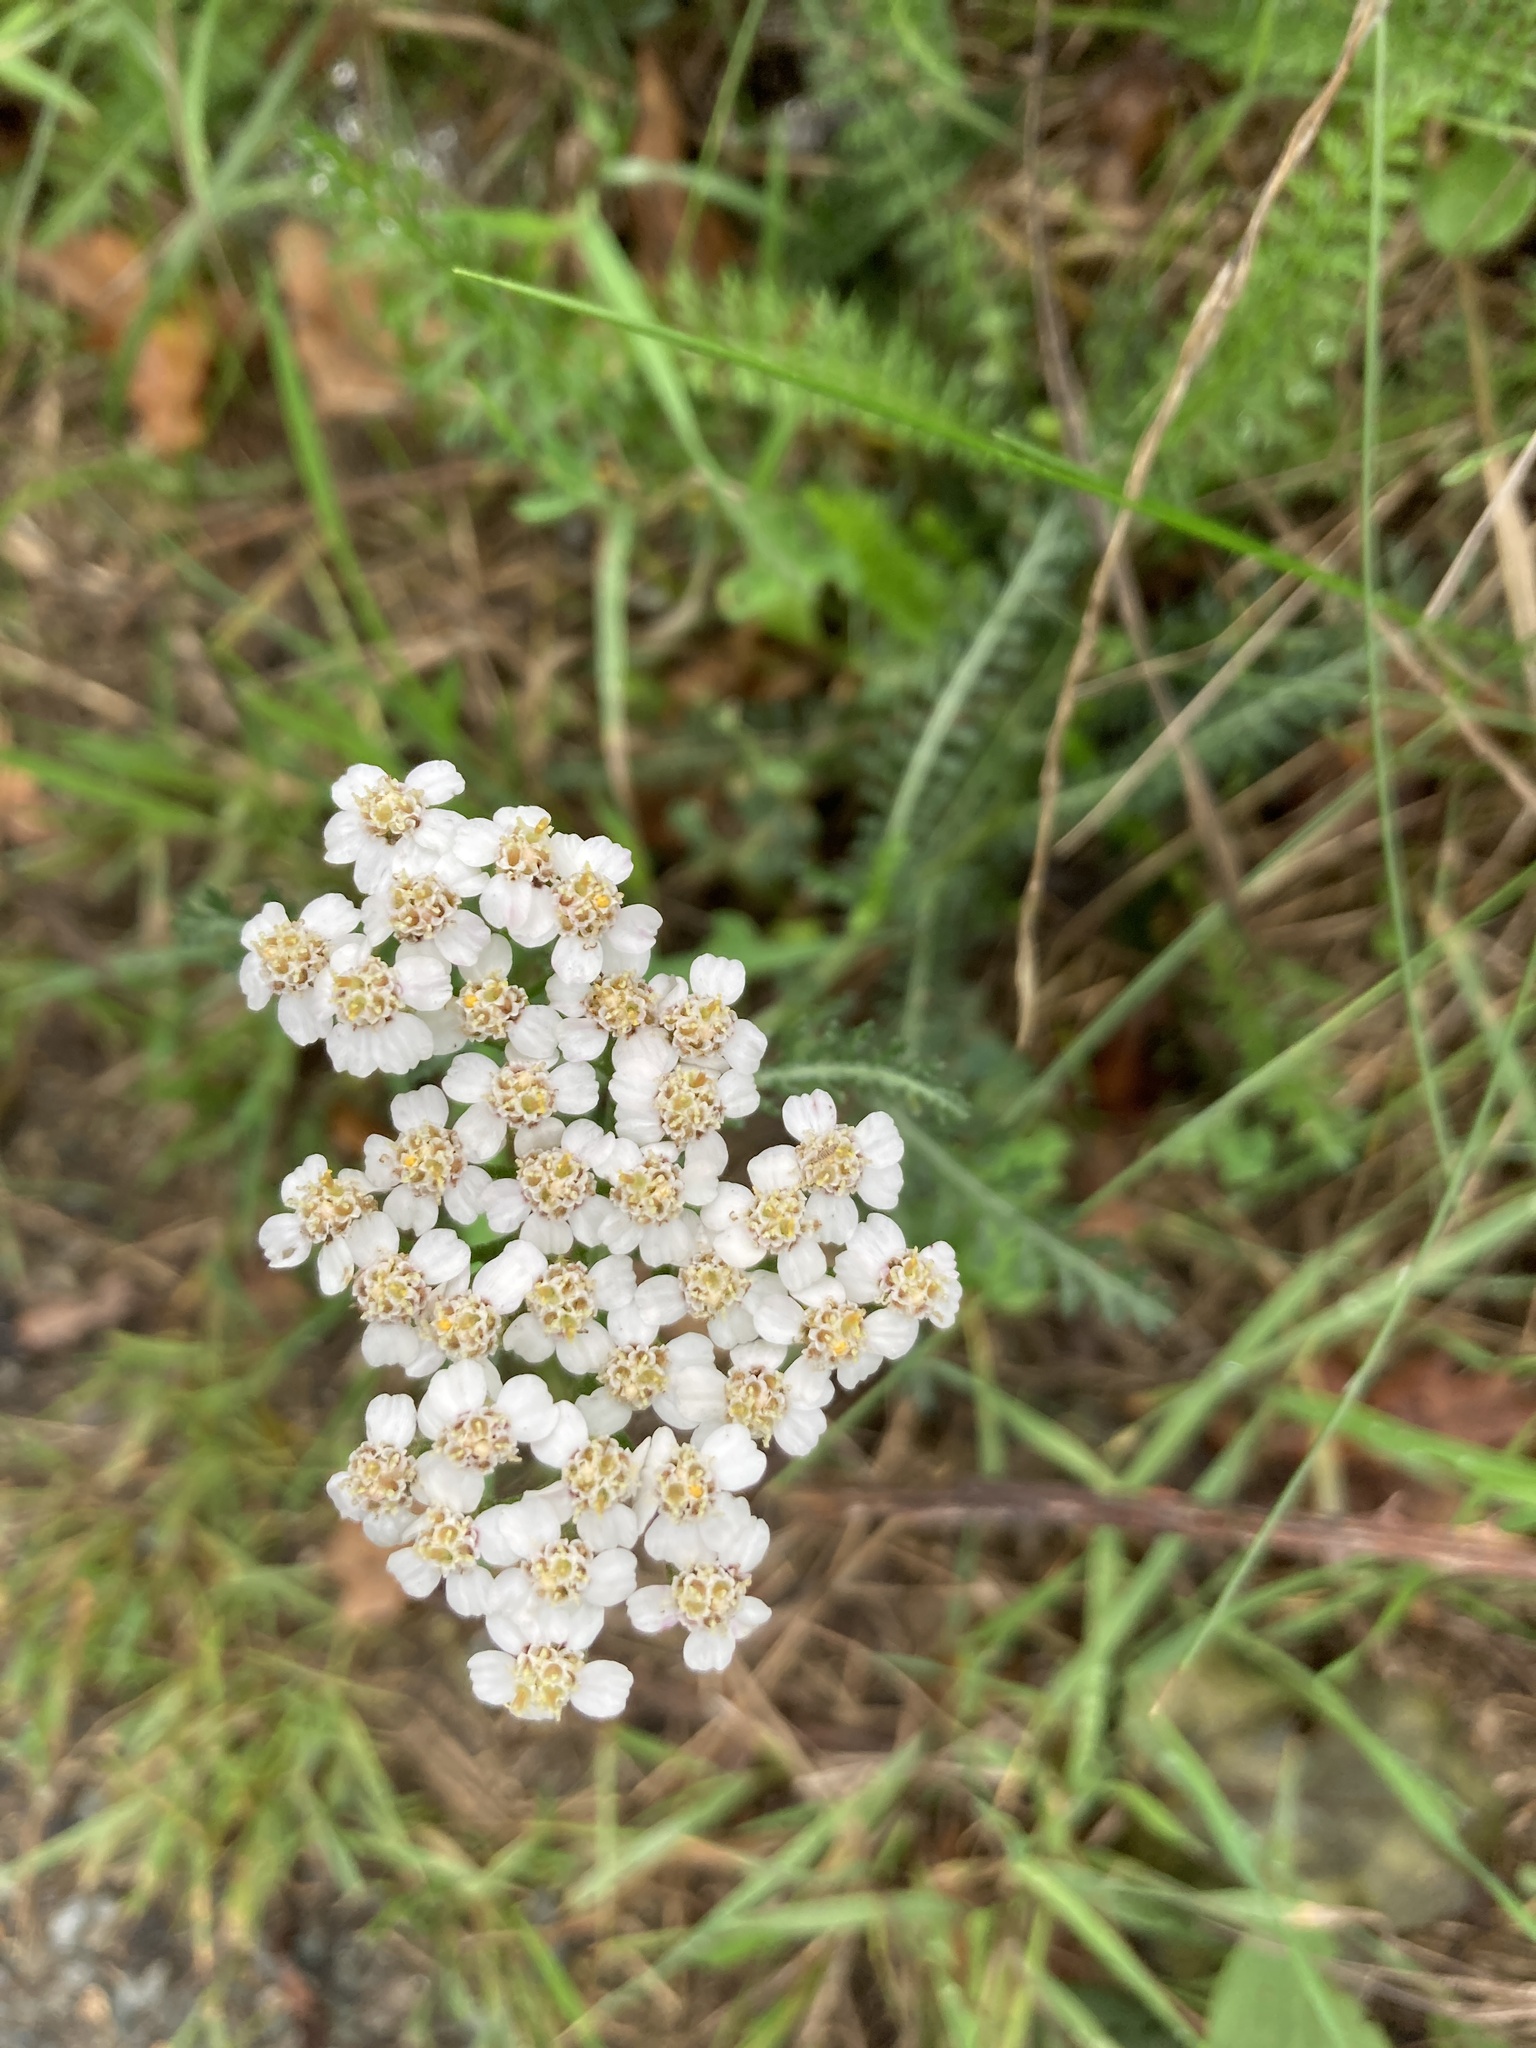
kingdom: Plantae
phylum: Tracheophyta
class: Magnoliopsida
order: Asterales
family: Asteraceae
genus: Achillea
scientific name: Achillea millefolium
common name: Yarrow
